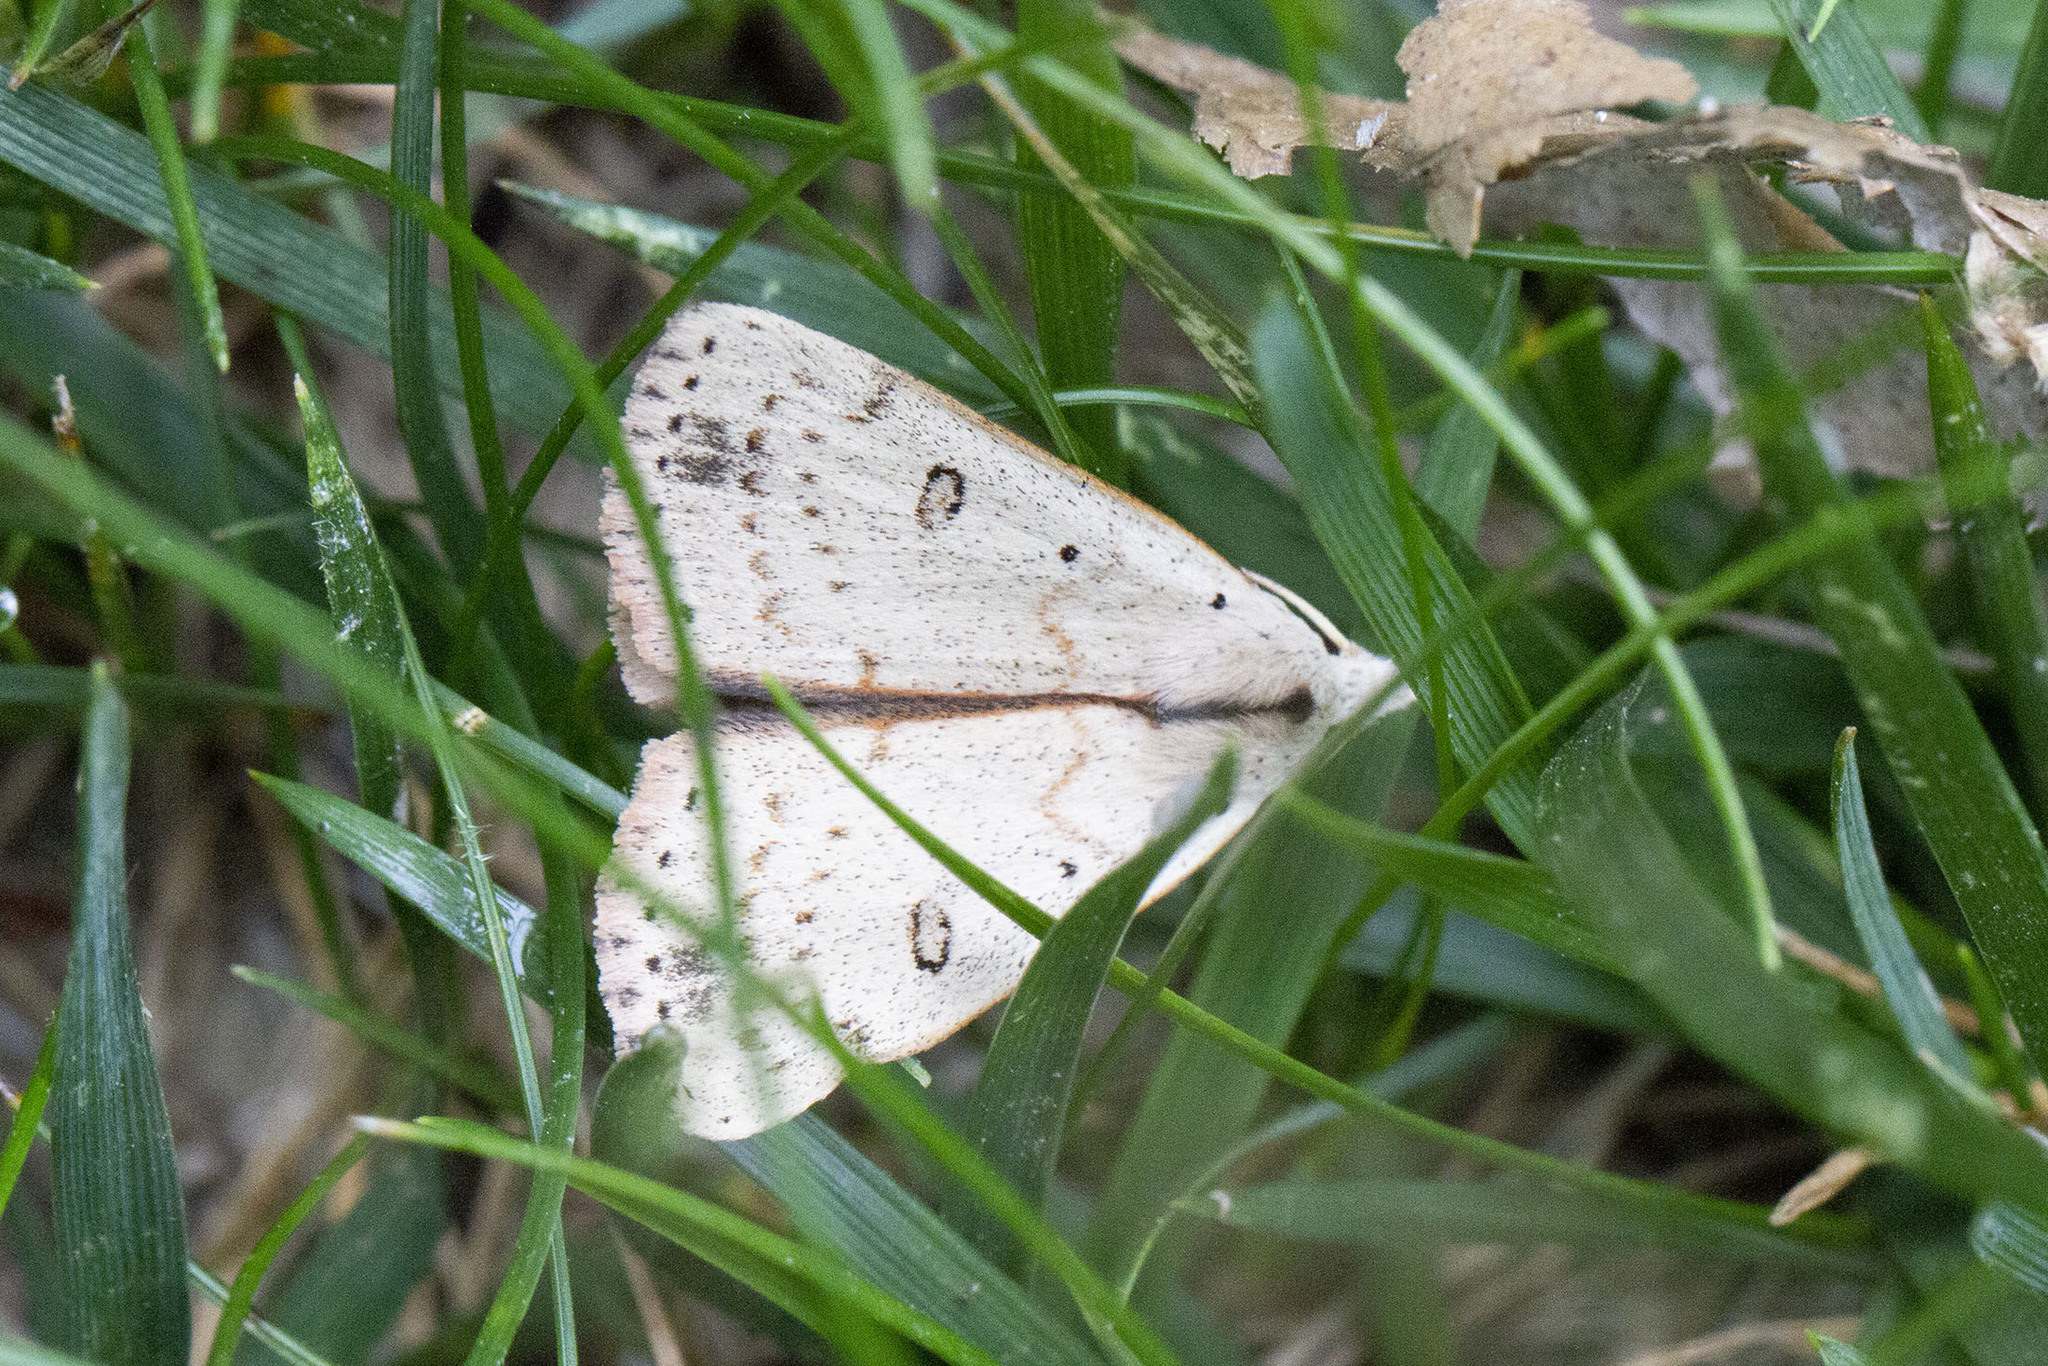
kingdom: Animalia
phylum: Arthropoda
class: Insecta
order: Lepidoptera
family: Erebidae
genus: Scolecocampa
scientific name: Scolecocampa liburna
